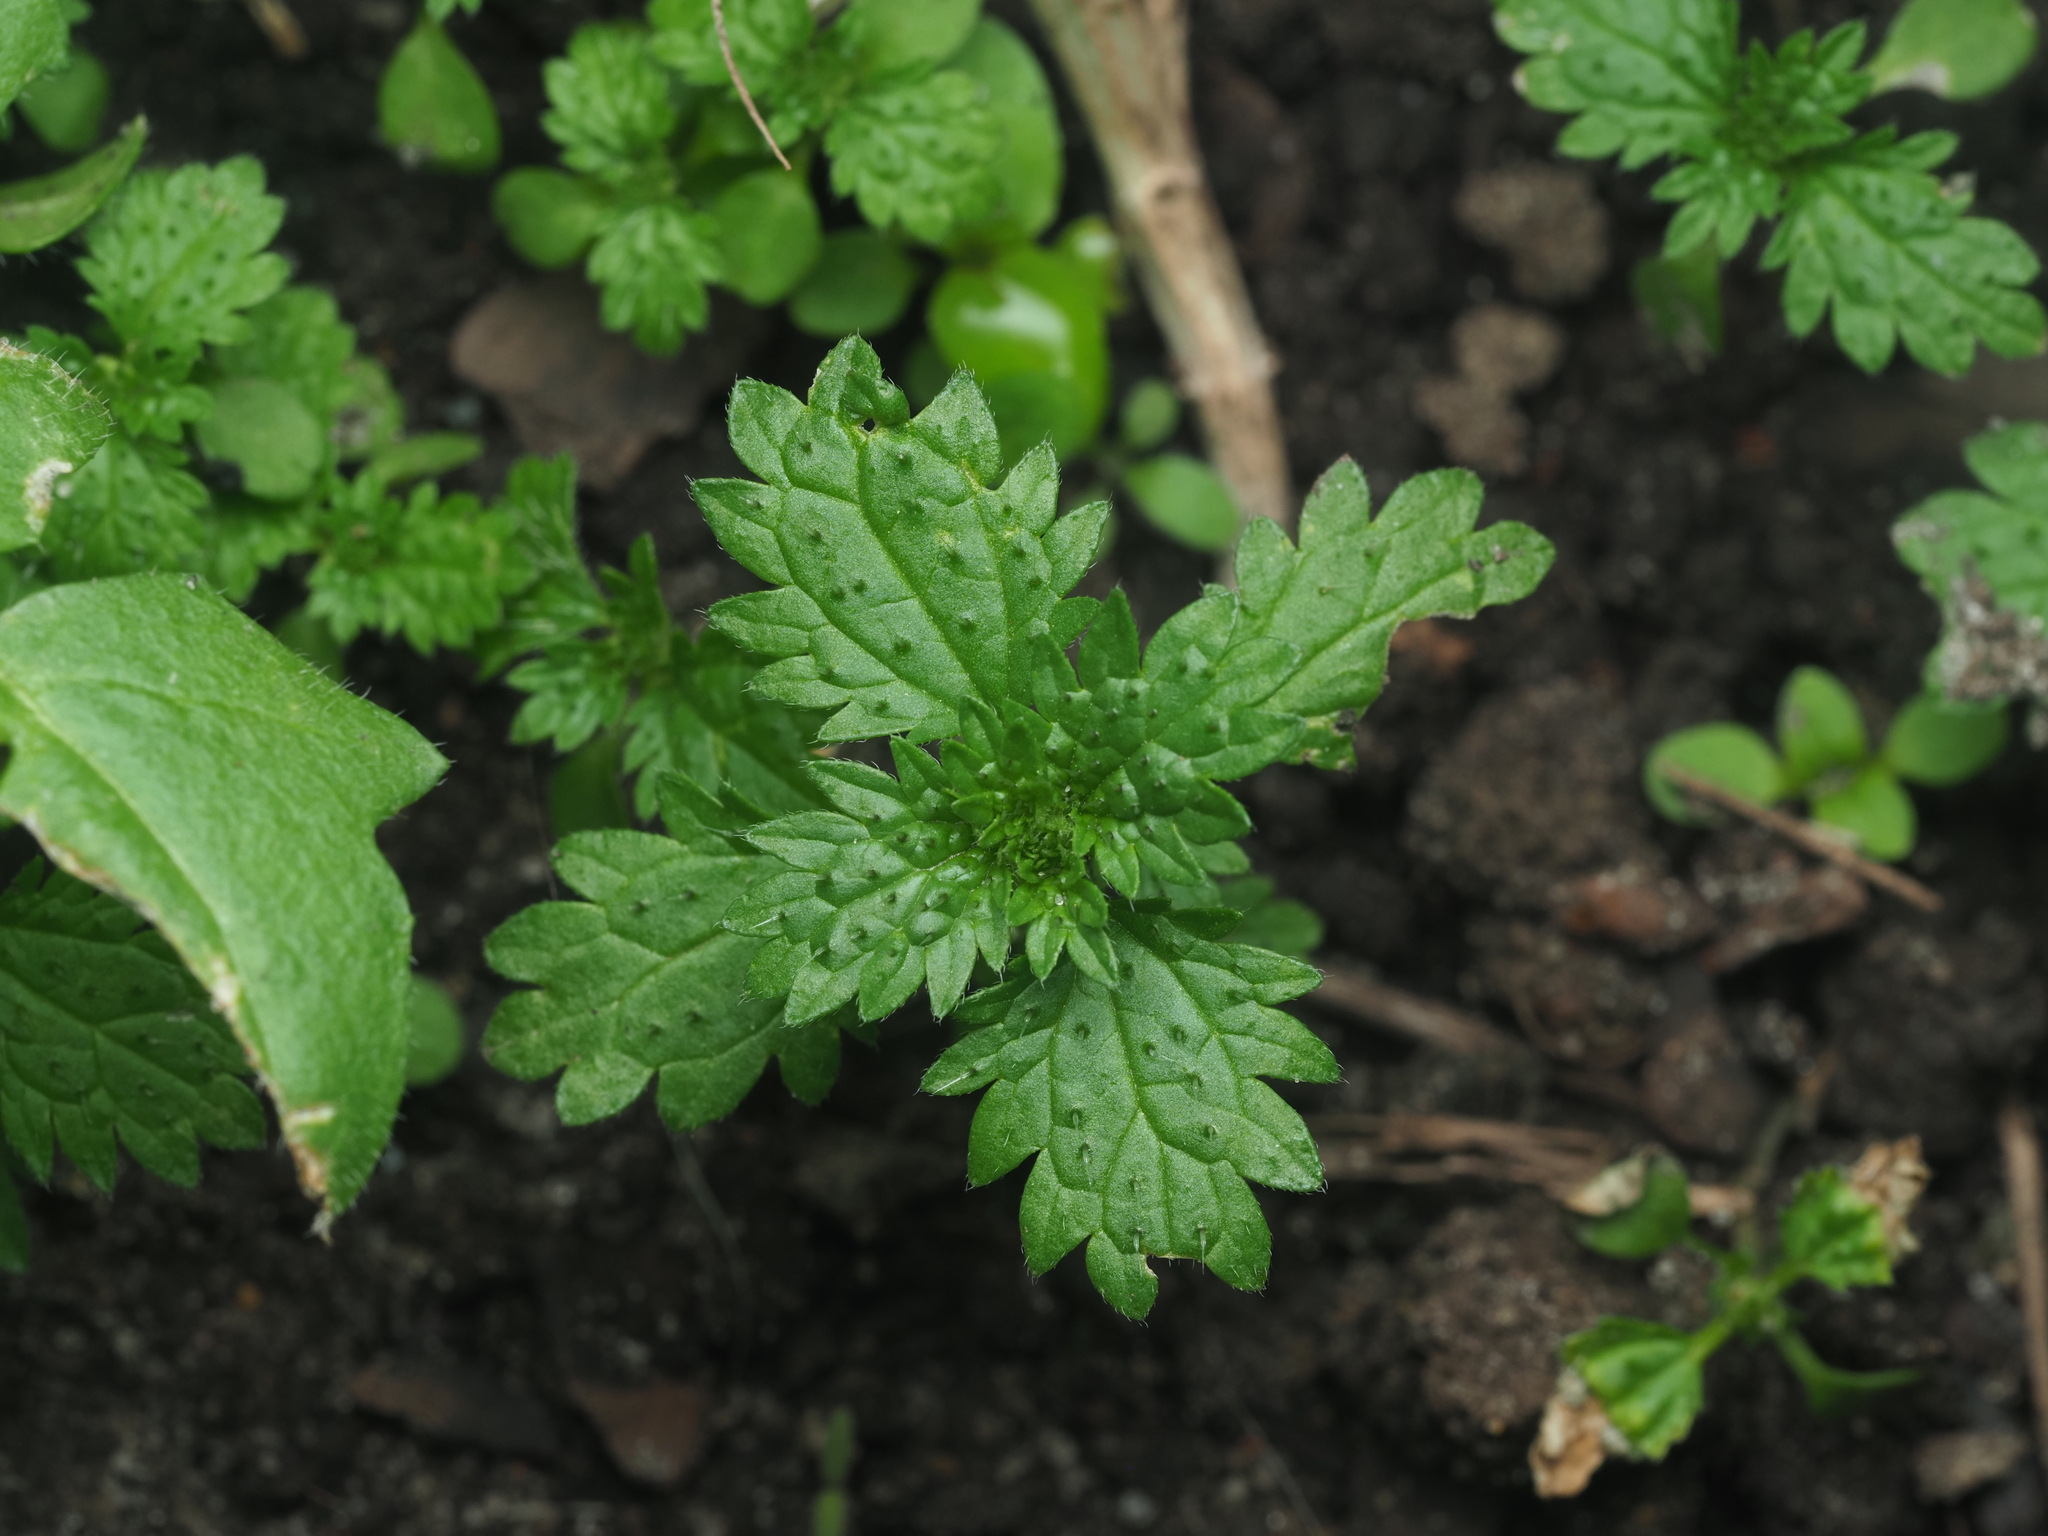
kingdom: Plantae
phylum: Tracheophyta
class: Magnoliopsida
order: Rosales
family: Urticaceae
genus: Urtica
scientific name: Urtica urens
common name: Dwarf nettle
